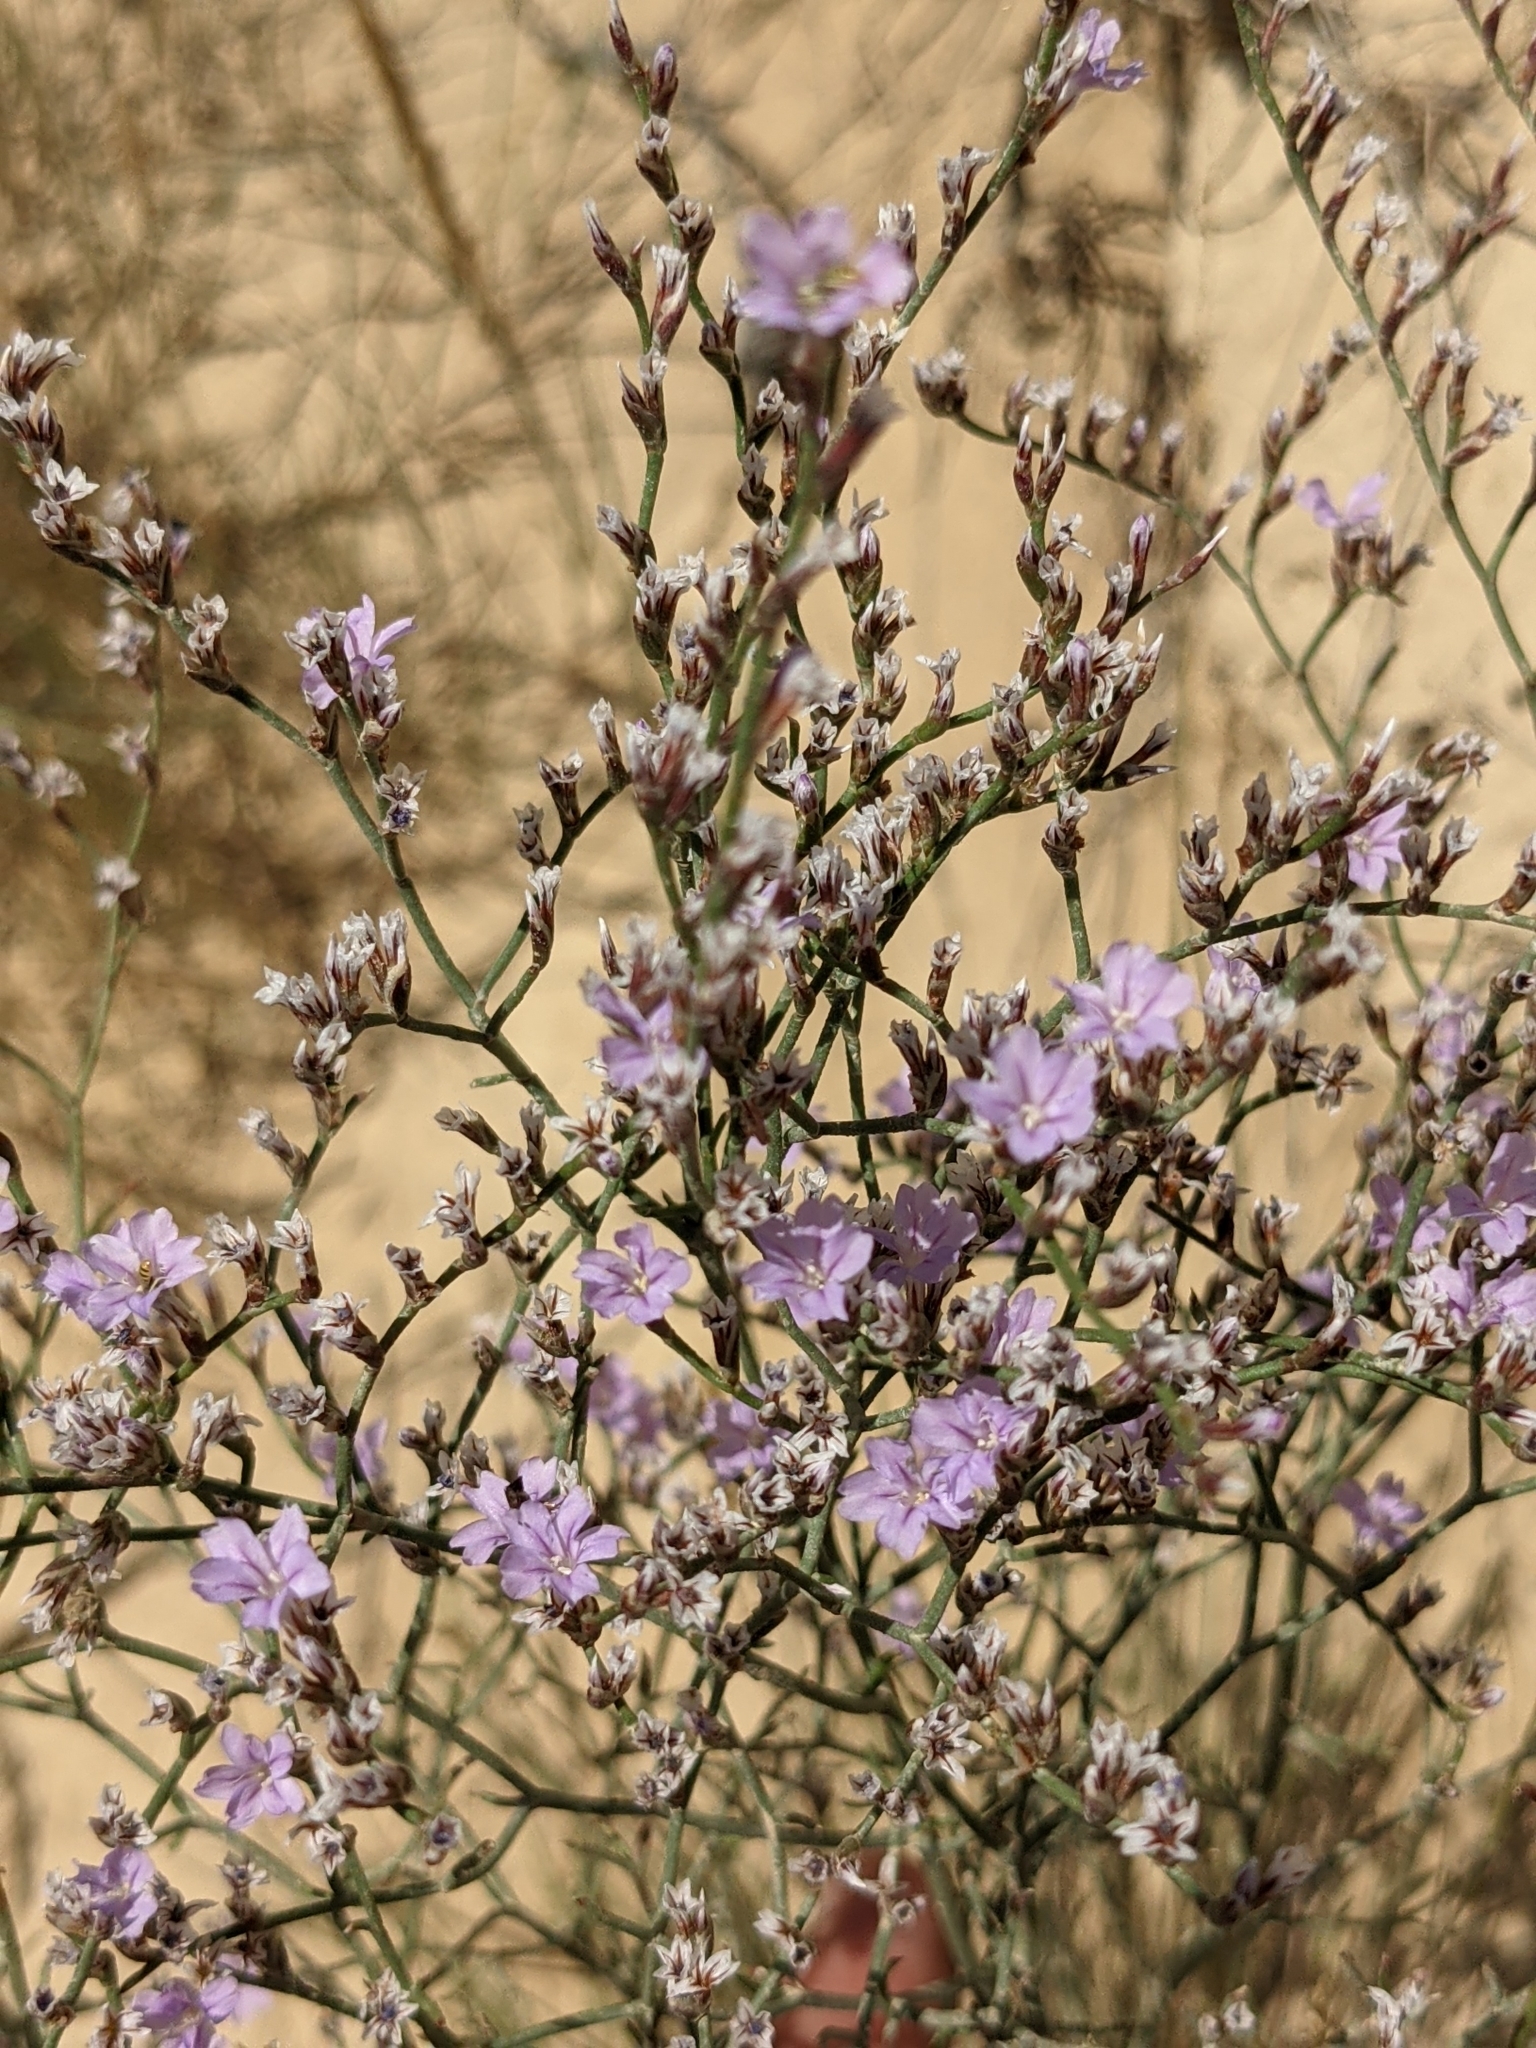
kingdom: Plantae
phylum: Tracheophyta
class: Magnoliopsida
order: Caryophyllales
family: Plumbaginaceae
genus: Limonium
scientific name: Limonium ruizii
